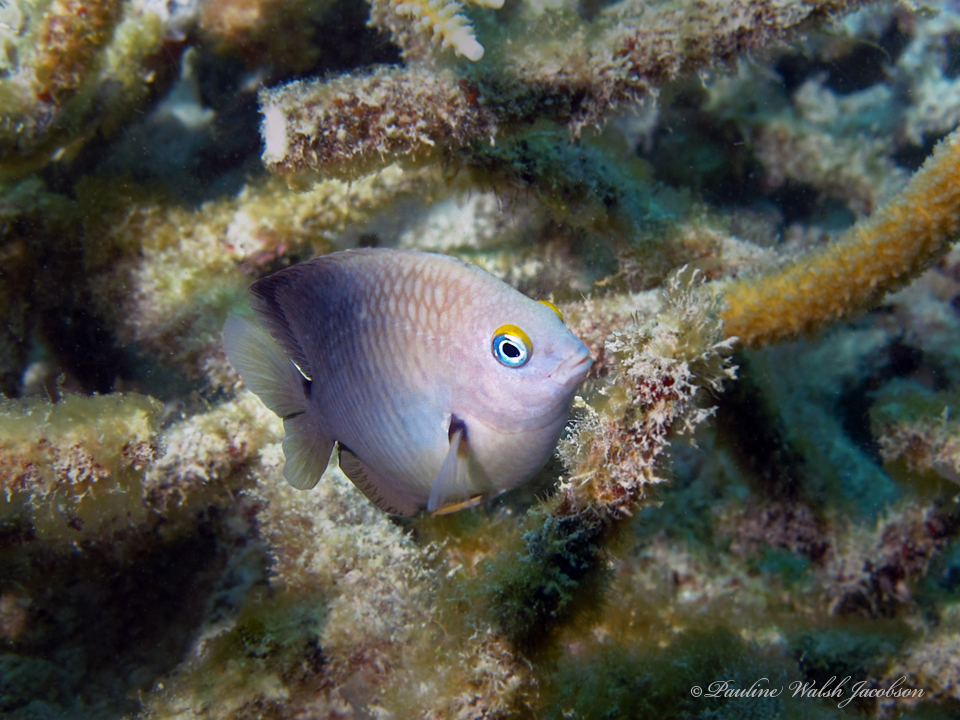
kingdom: Animalia
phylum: Chordata
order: Perciformes
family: Pomacentridae
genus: Stegastes
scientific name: Stegastes planifrons
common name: Threespot damselfish
